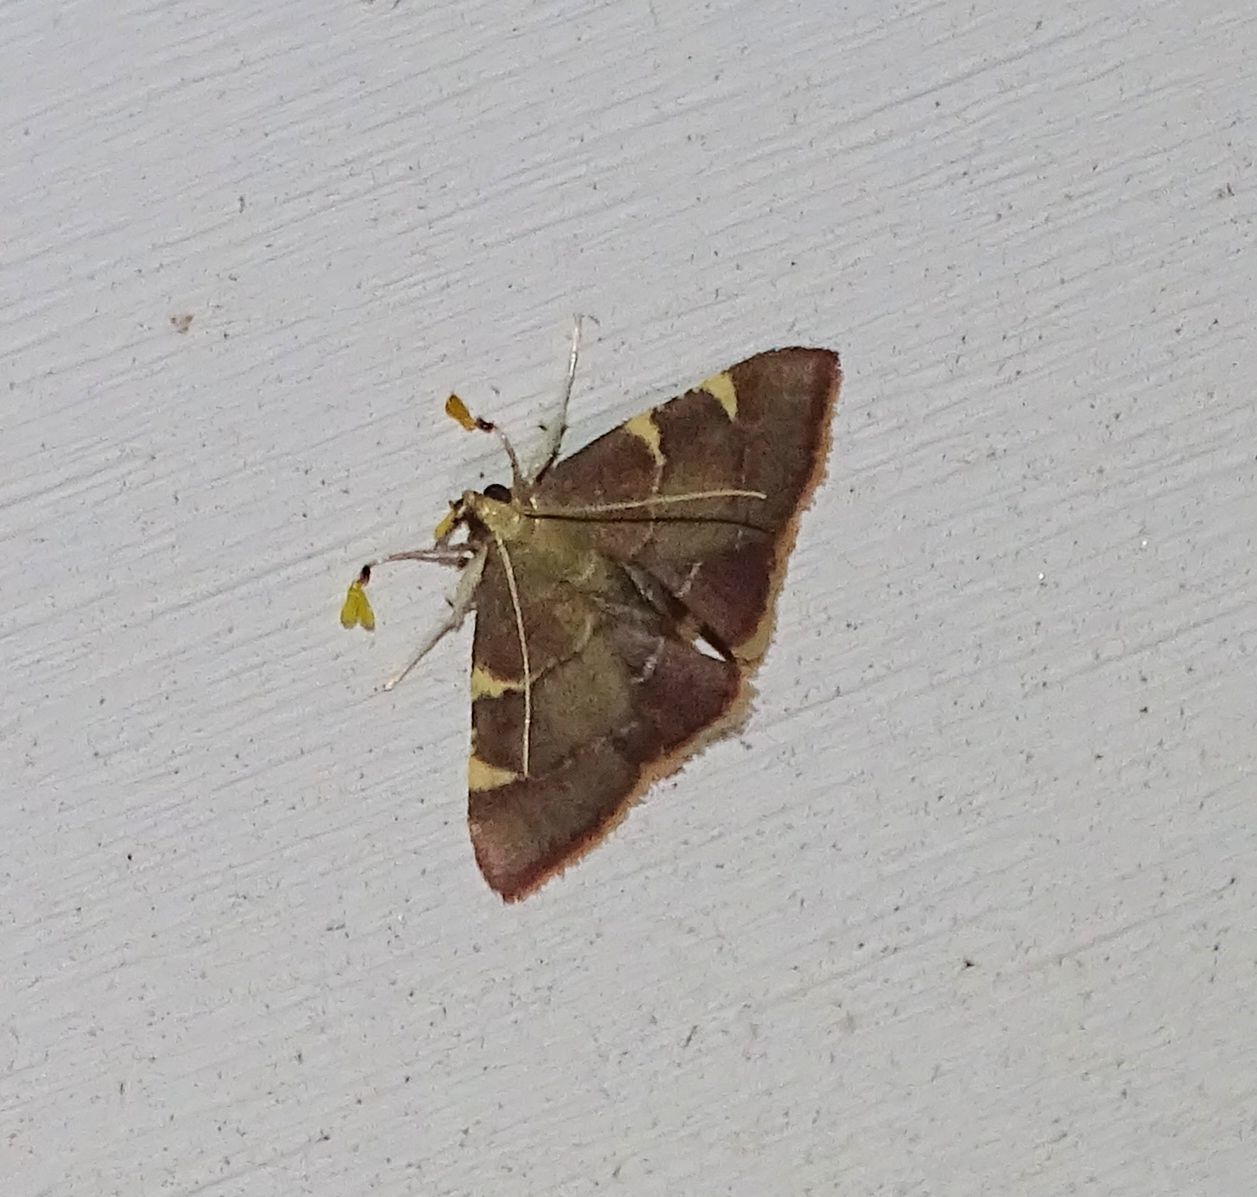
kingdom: Animalia
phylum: Arthropoda
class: Insecta
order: Lepidoptera
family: Pyralidae
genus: Hypsopygia
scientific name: Hypsopygia olinalis
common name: Yellow-fringed dolichomia moth
